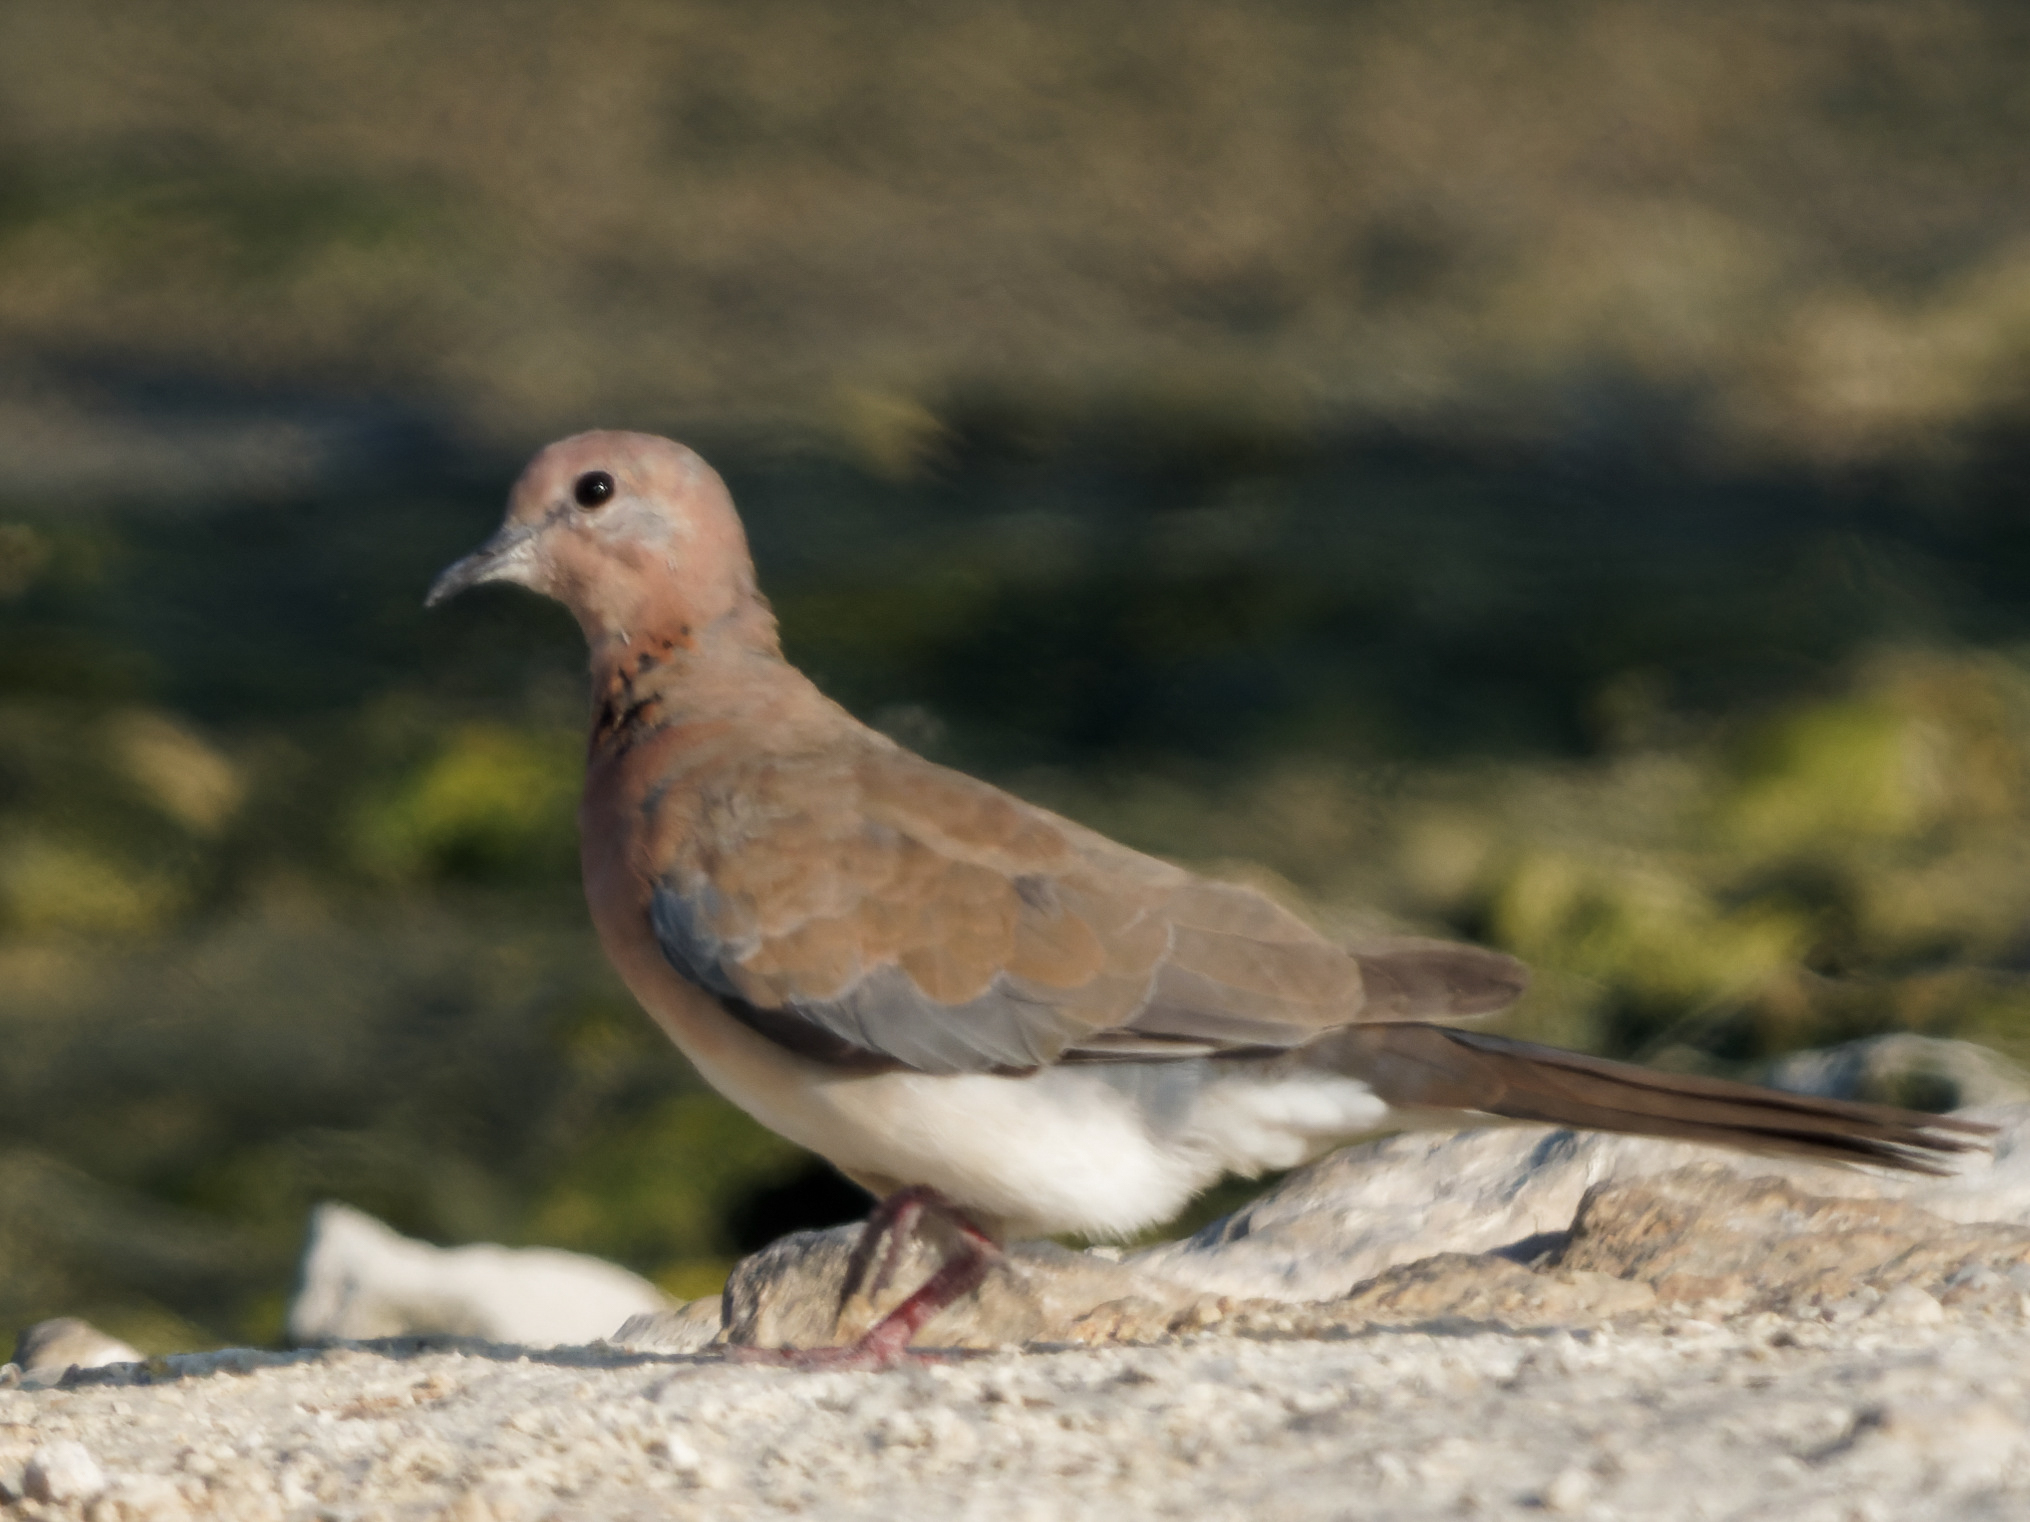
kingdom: Animalia
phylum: Chordata
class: Aves
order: Columbiformes
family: Columbidae
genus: Spilopelia
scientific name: Spilopelia senegalensis
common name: Laughing dove
